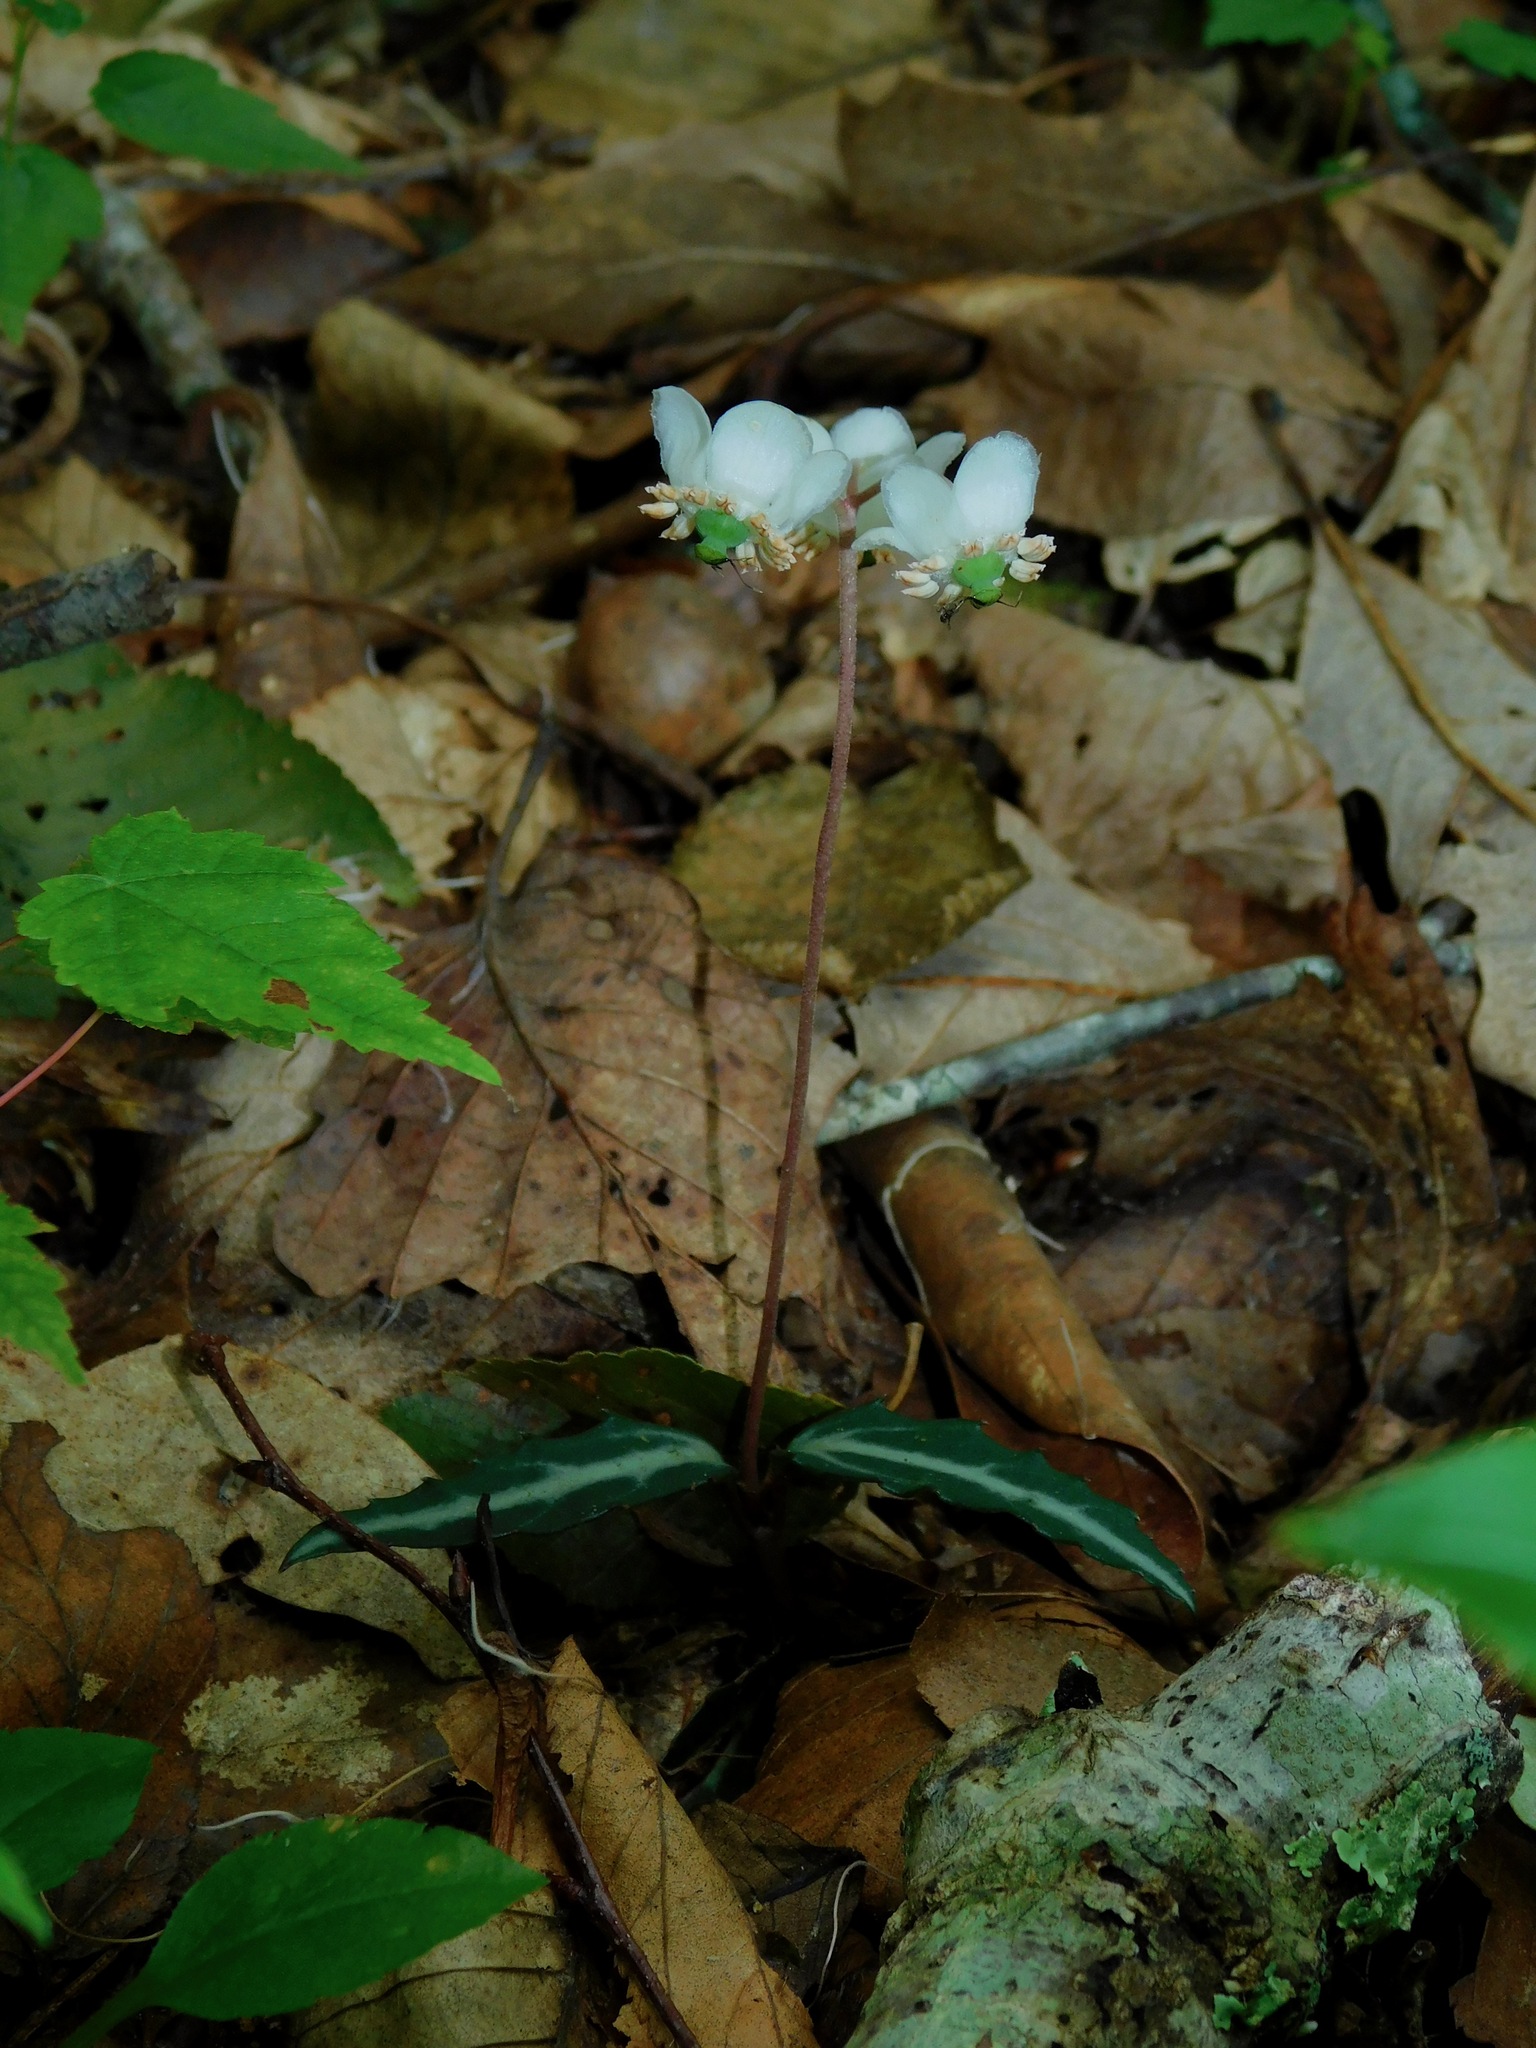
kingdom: Plantae
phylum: Tracheophyta
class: Magnoliopsida
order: Ericales
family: Ericaceae
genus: Chimaphila
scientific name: Chimaphila maculata
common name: Spotted pipsissewa
